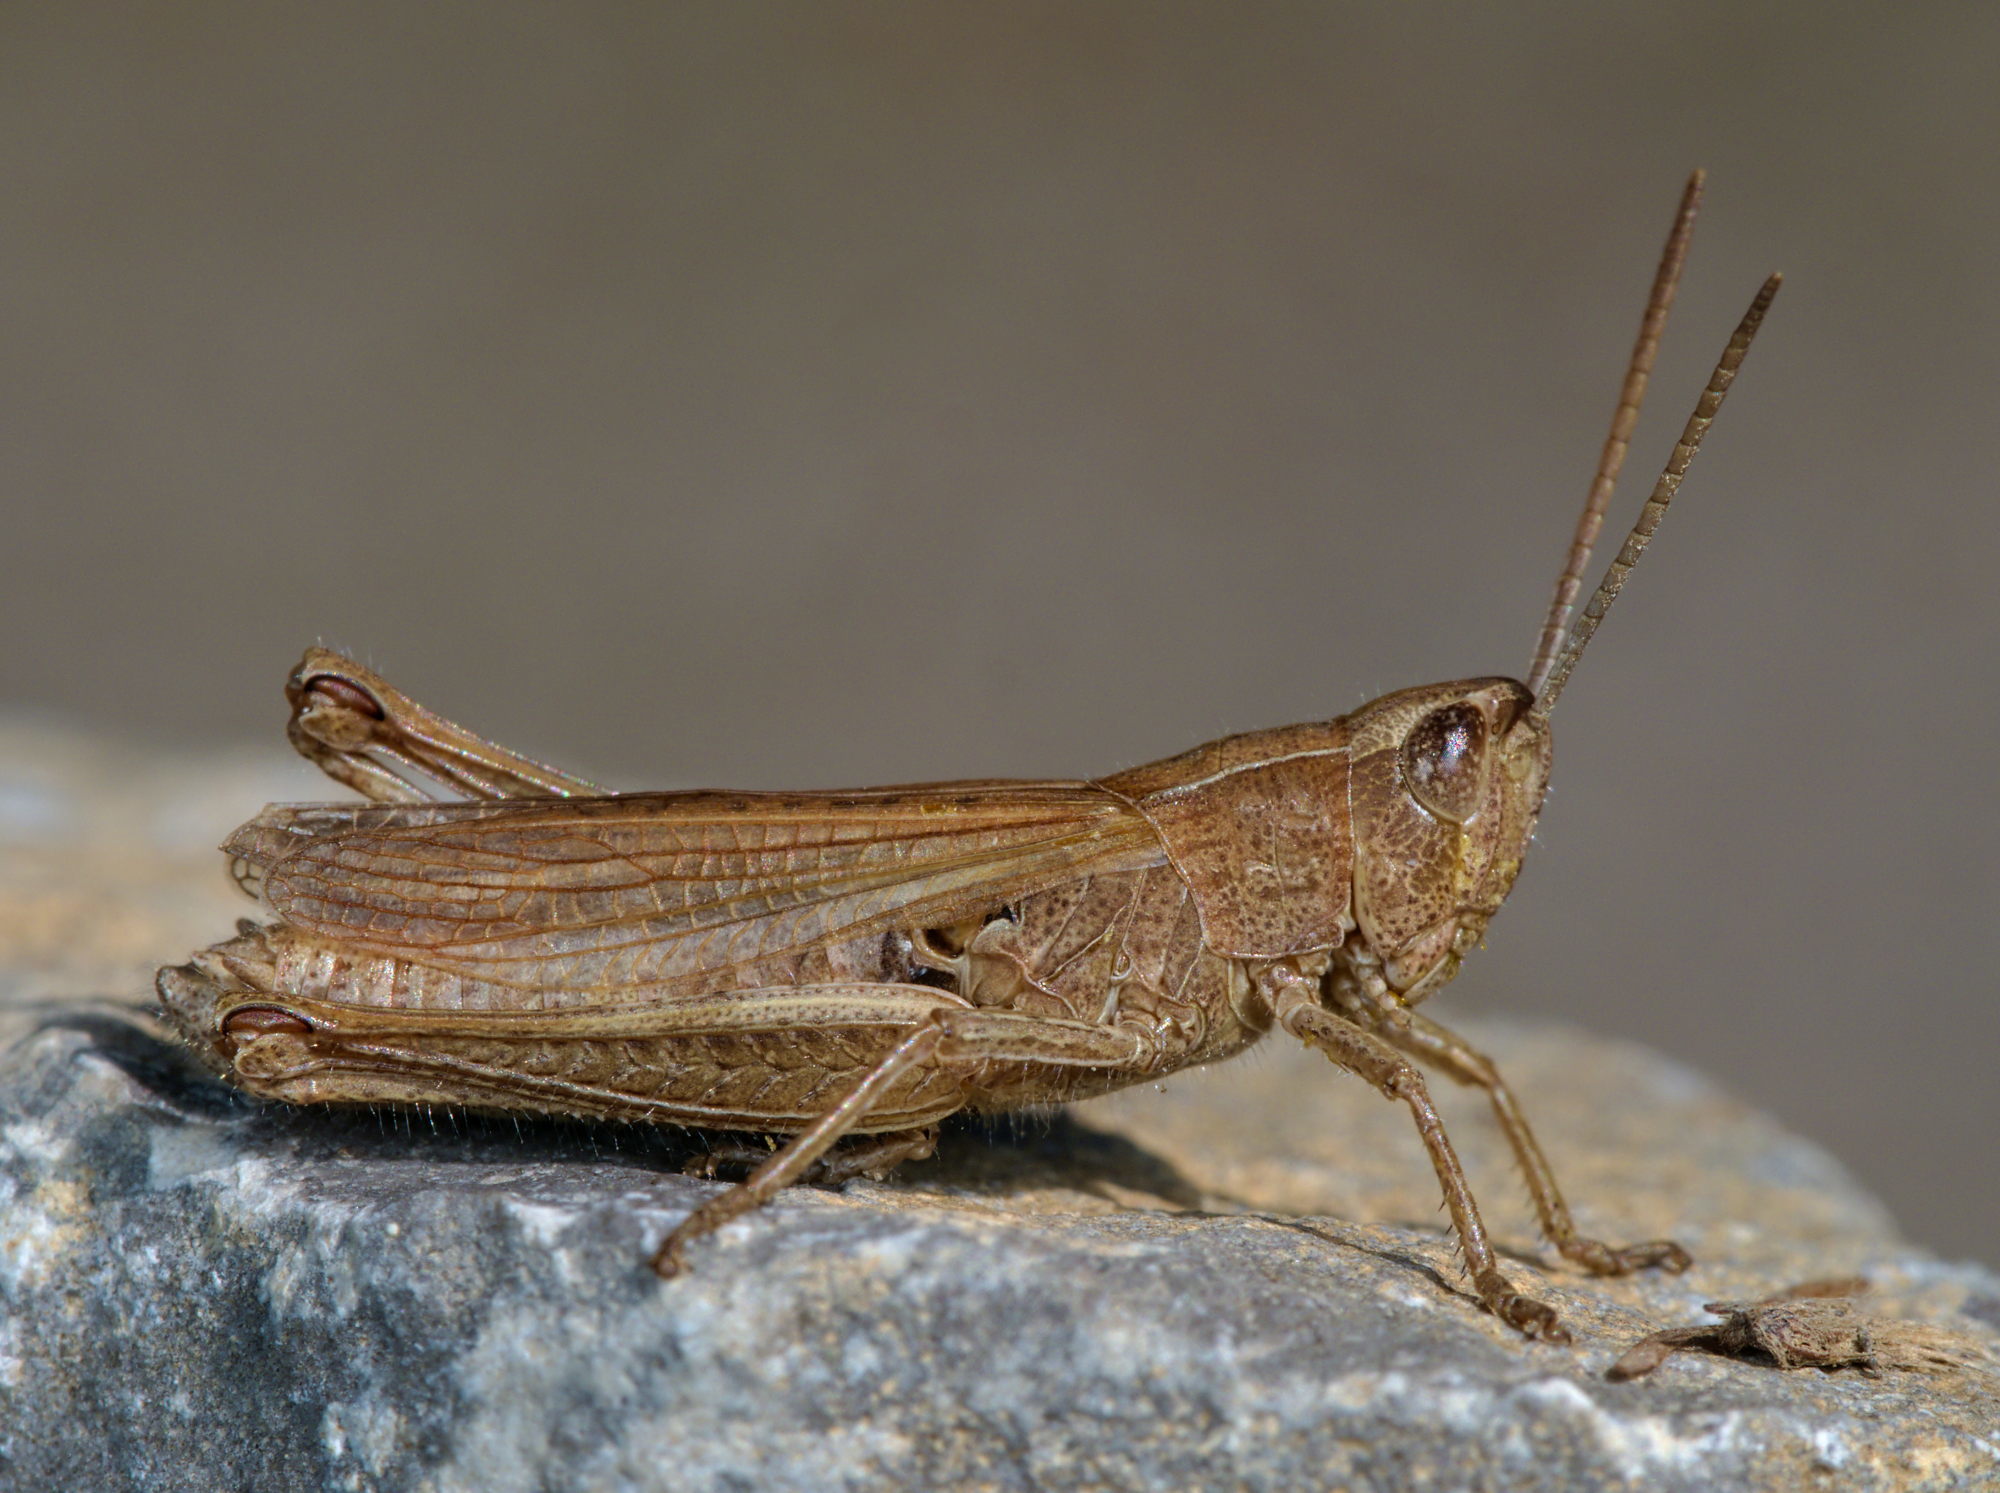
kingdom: Animalia
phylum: Arthropoda
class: Insecta
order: Orthoptera
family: Acrididae
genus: Chorthippus
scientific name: Chorthippus dorsatus
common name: Steppe grasshopper
